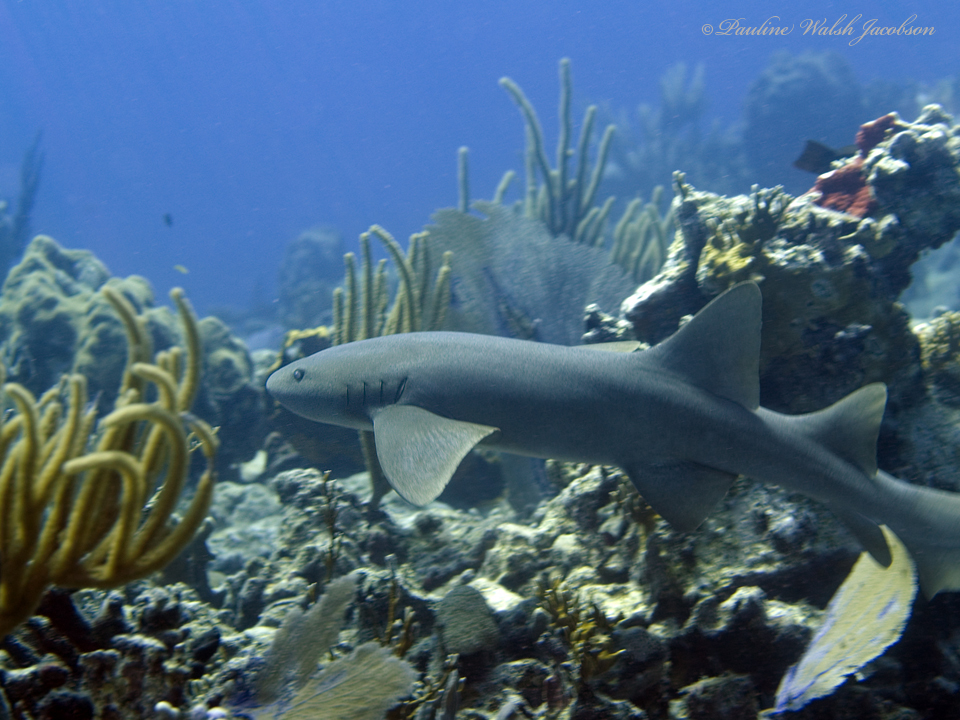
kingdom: Animalia
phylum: Chordata
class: Elasmobranchii
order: Orectolobiformes
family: Ginglymostomatidae
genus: Ginglymostoma
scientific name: Ginglymostoma cirratum
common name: Nurse shark
